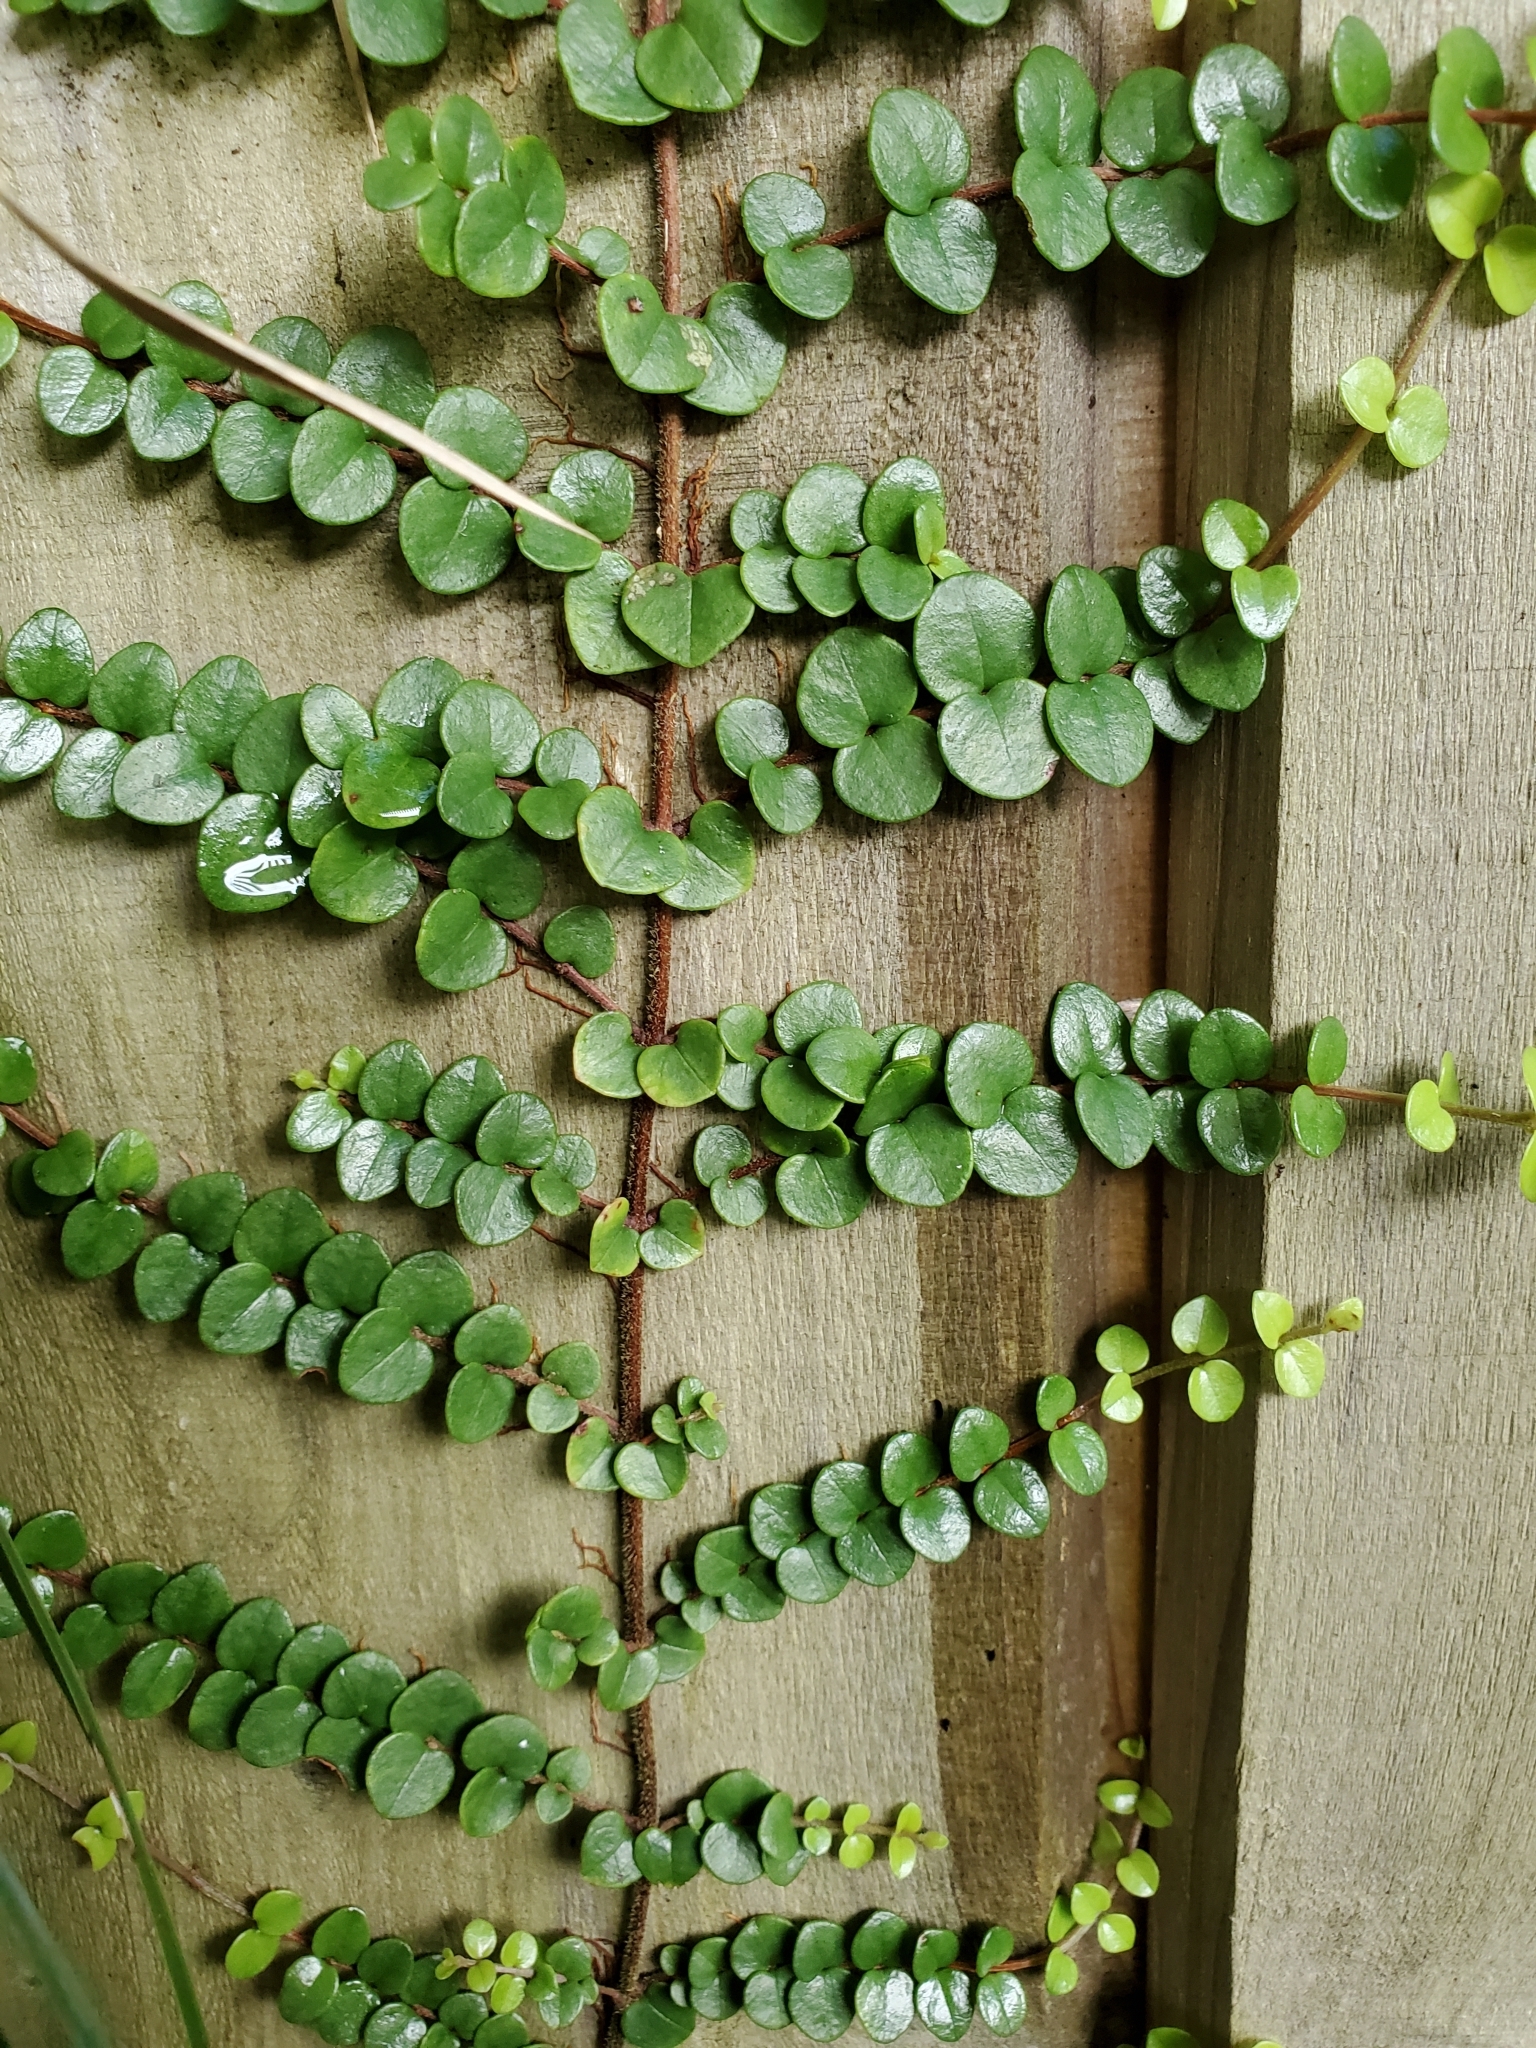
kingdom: Plantae
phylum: Tracheophyta
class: Magnoliopsida
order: Myrtales
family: Myrtaceae
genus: Metrosideros
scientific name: Metrosideros perforata
